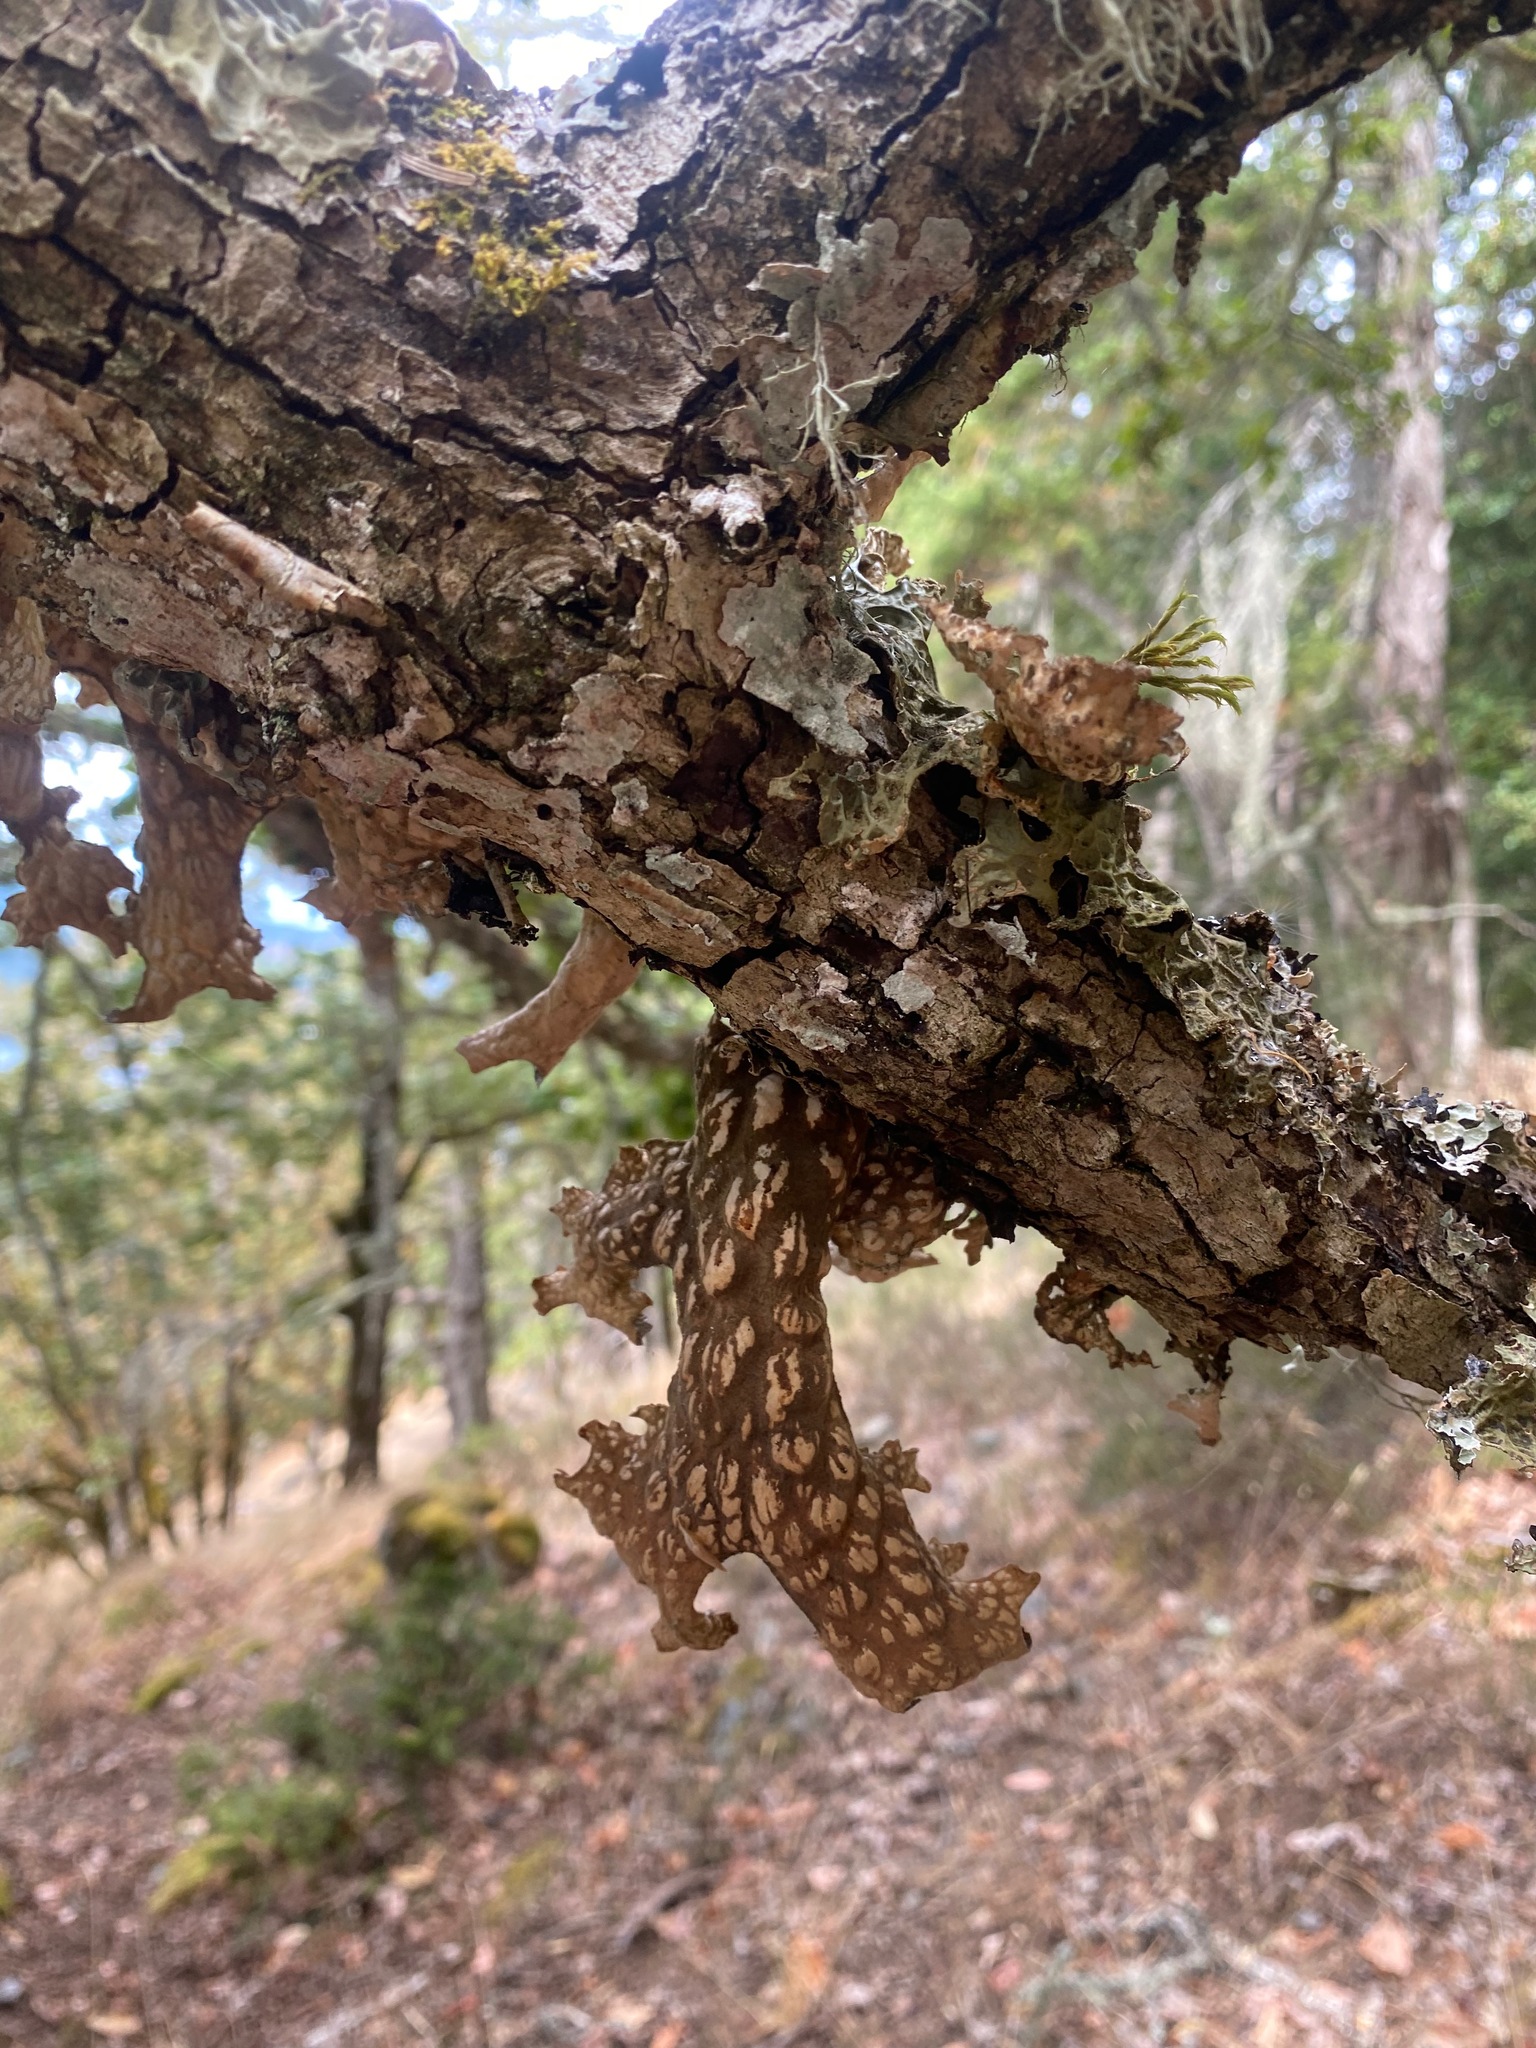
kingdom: Fungi
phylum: Ascomycota
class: Lecanoromycetes
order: Peltigerales
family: Lobariaceae
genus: Lobaria
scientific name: Lobaria pulmonaria
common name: Lungwort
